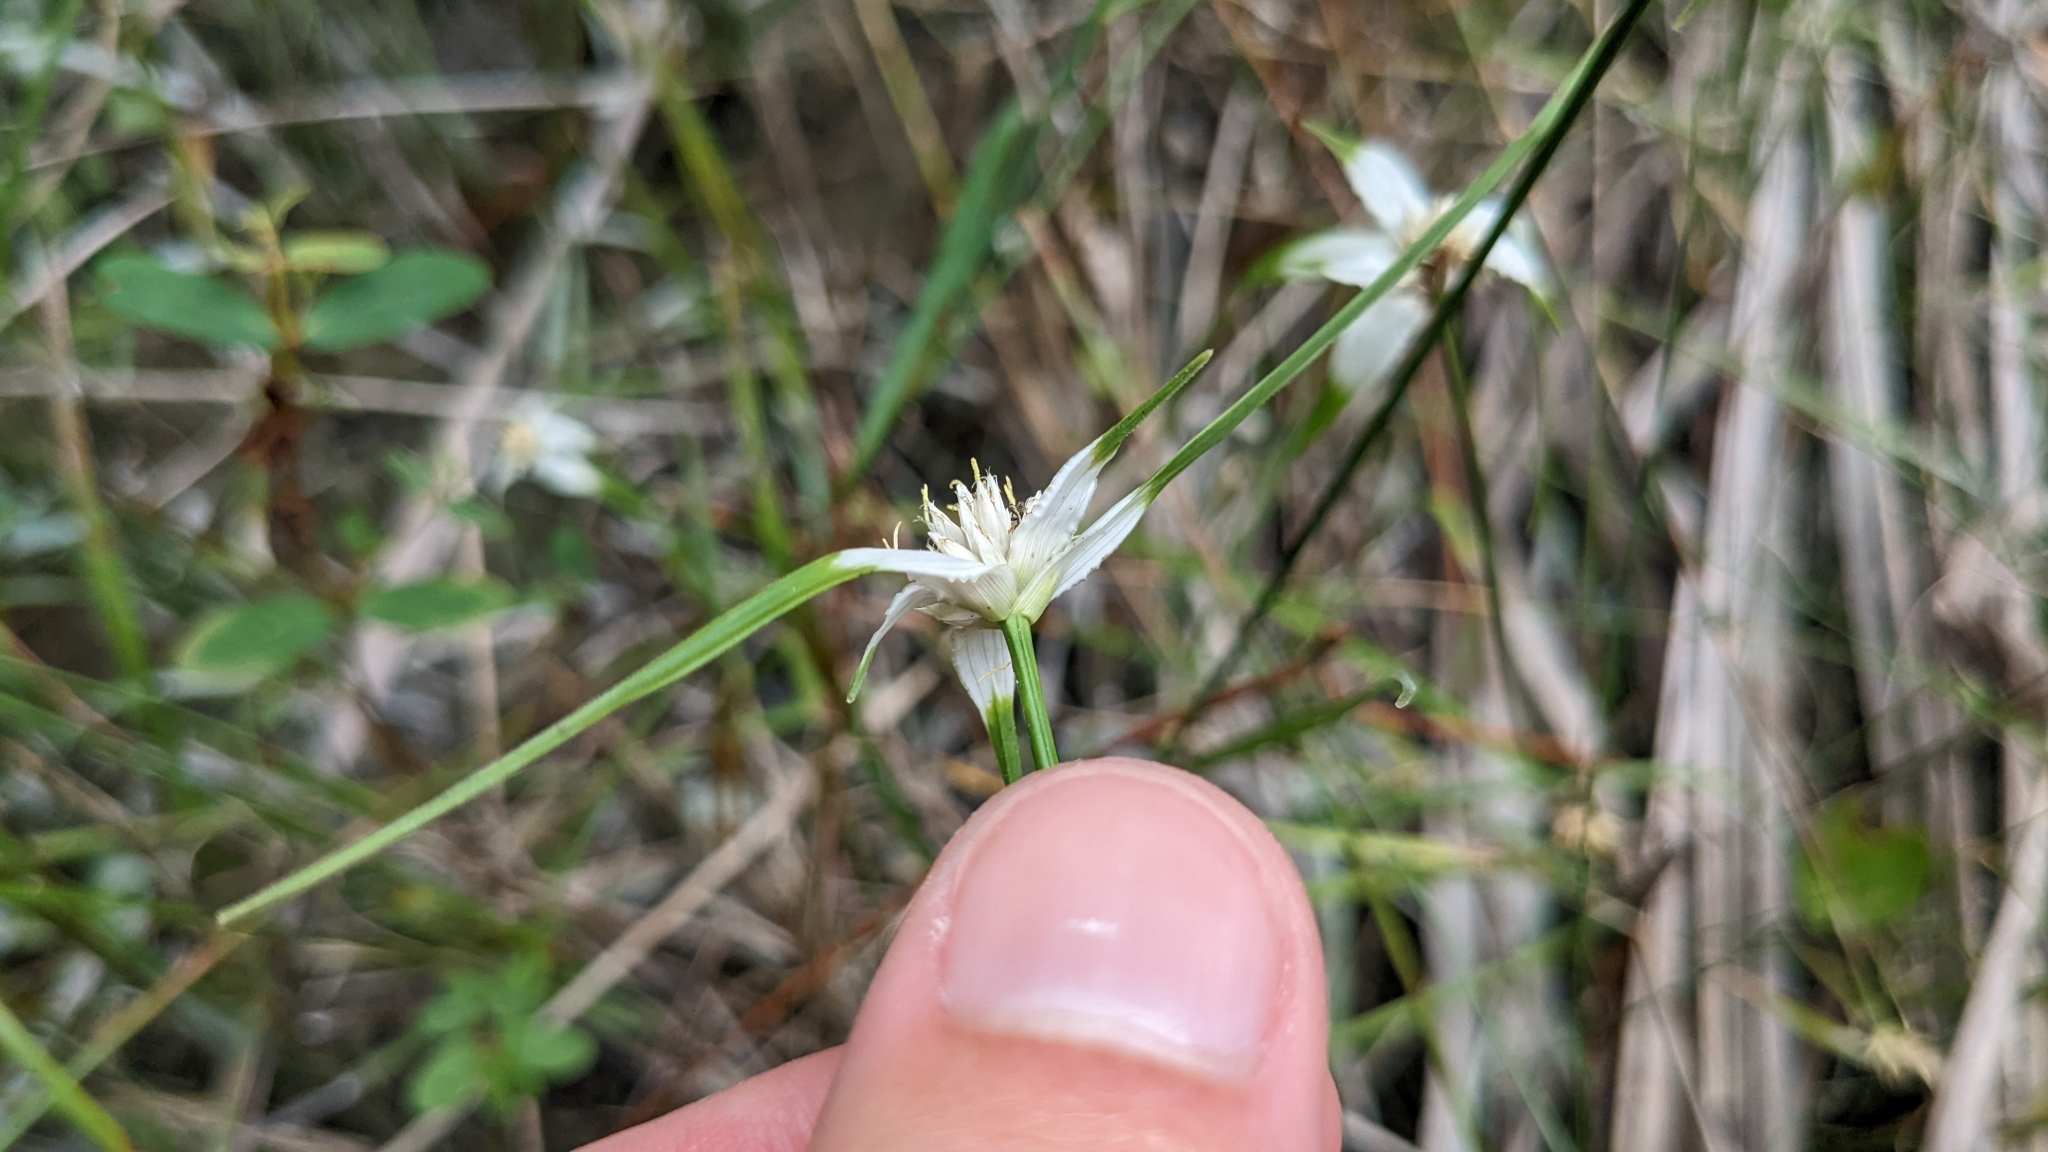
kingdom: Plantae
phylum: Tracheophyta
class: Liliopsida
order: Poales
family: Cyperaceae
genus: Rhynchospora
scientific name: Rhynchospora colorata
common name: Star sedge
